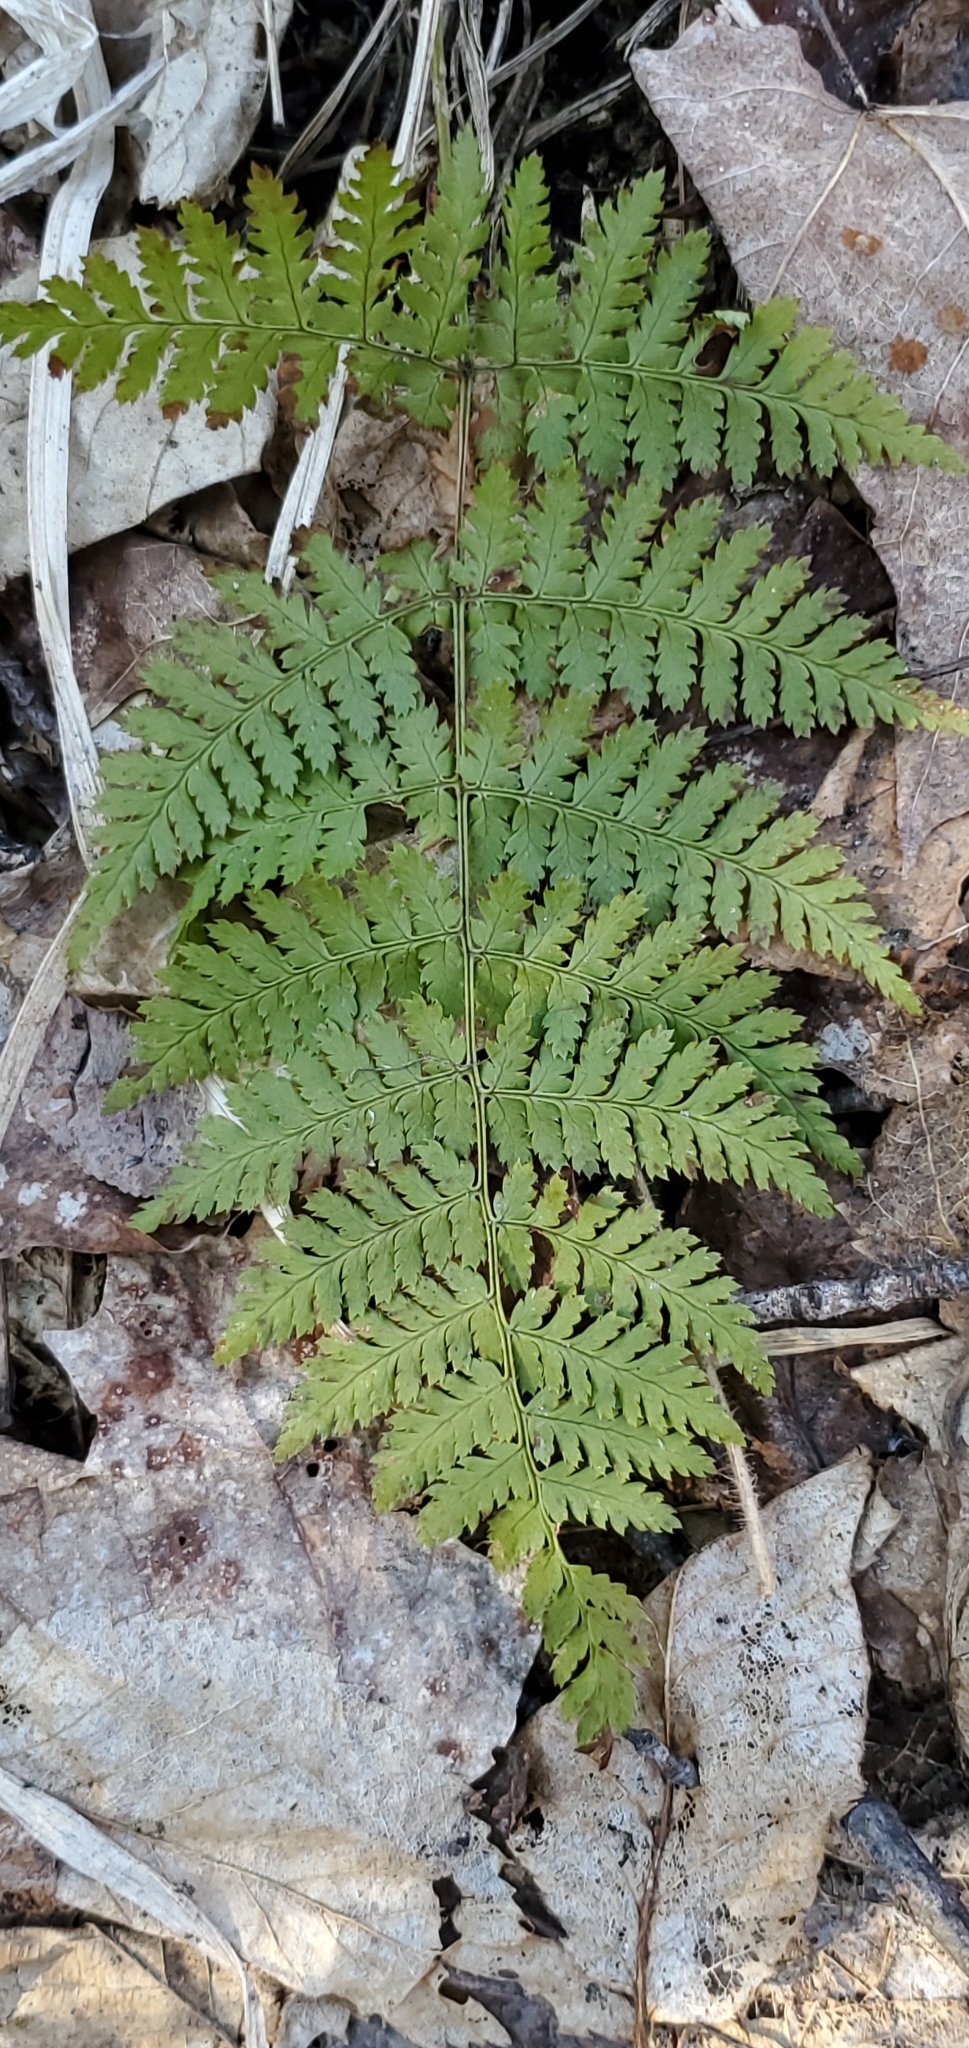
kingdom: Plantae
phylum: Tracheophyta
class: Polypodiopsida
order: Polypodiales
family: Dryopteridaceae
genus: Dryopteris
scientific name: Dryopteris triploidea
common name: Fruitful wood fern
